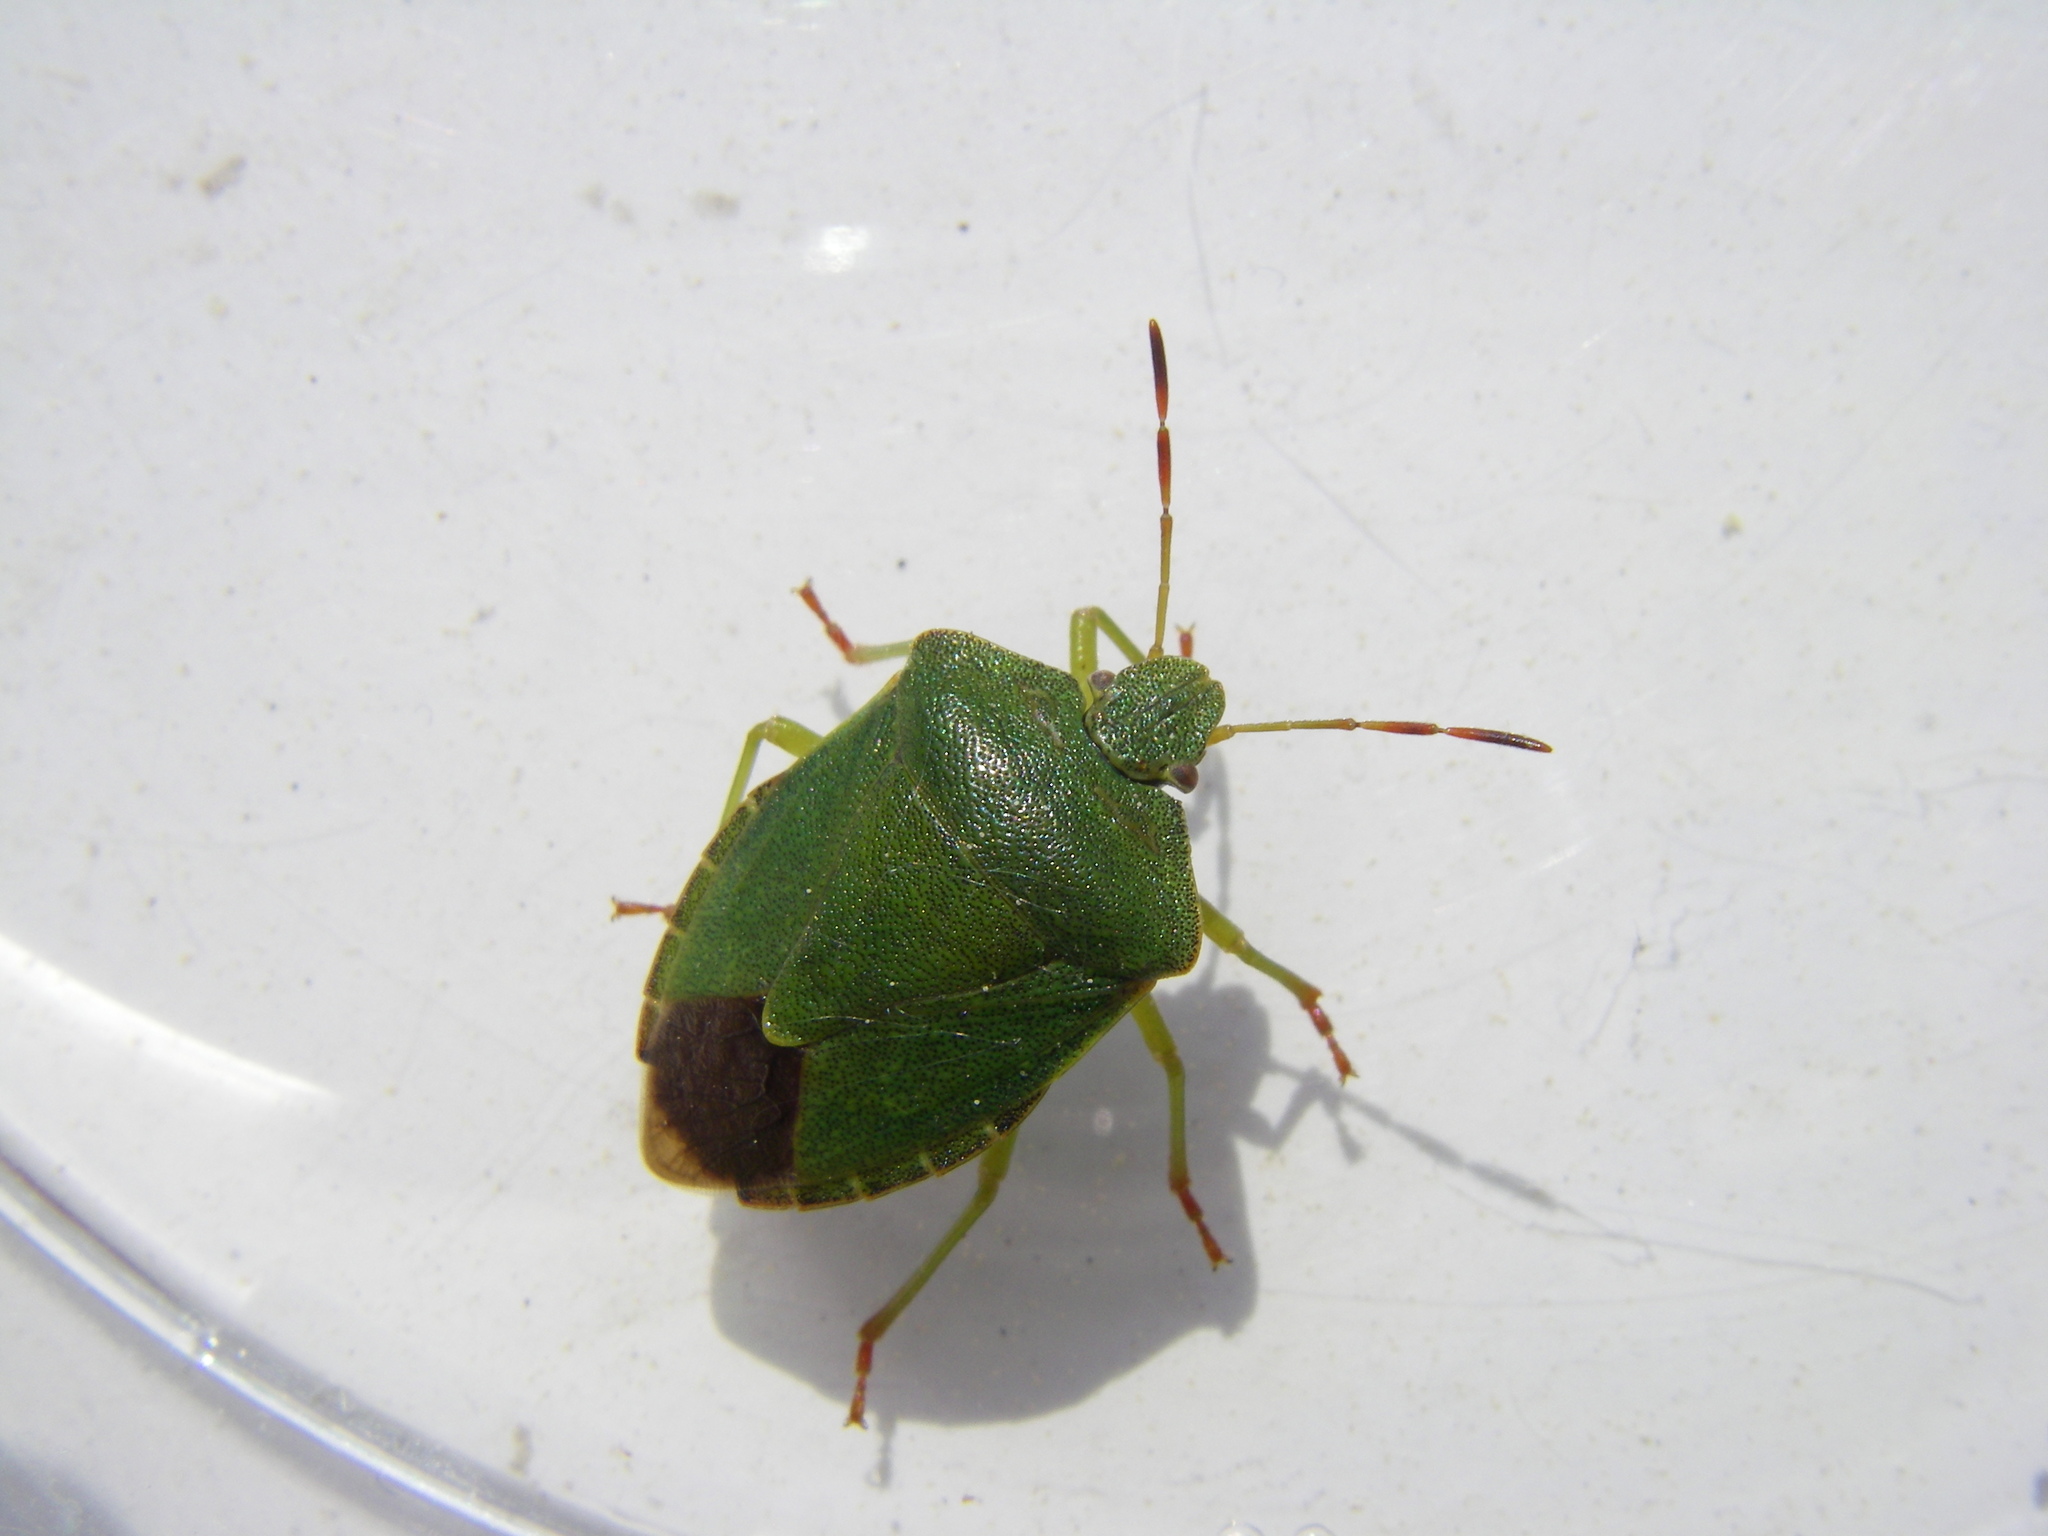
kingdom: Animalia
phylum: Arthropoda
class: Insecta
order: Hemiptera
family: Pentatomidae
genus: Palomena
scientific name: Palomena prasina
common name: Green shieldbug
